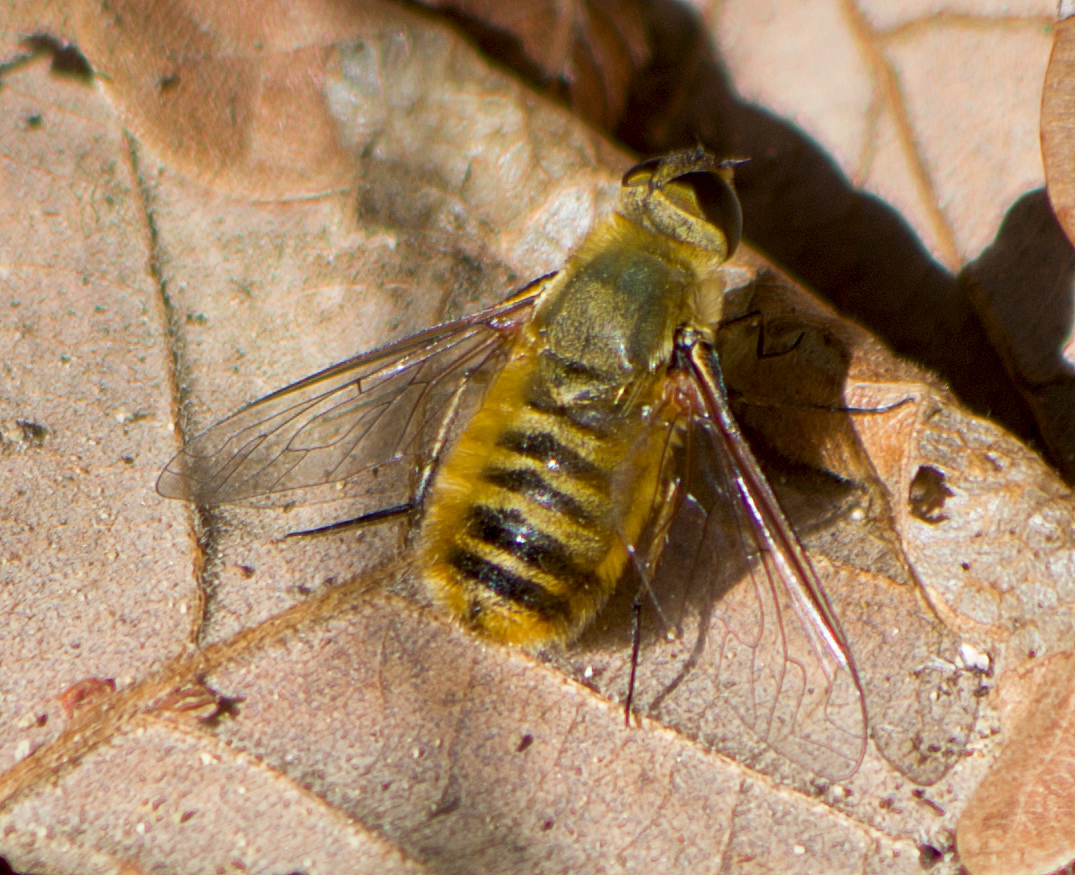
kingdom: Animalia
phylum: Arthropoda
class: Insecta
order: Diptera
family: Bombyliidae
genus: Villa
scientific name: Villa hottentotta
